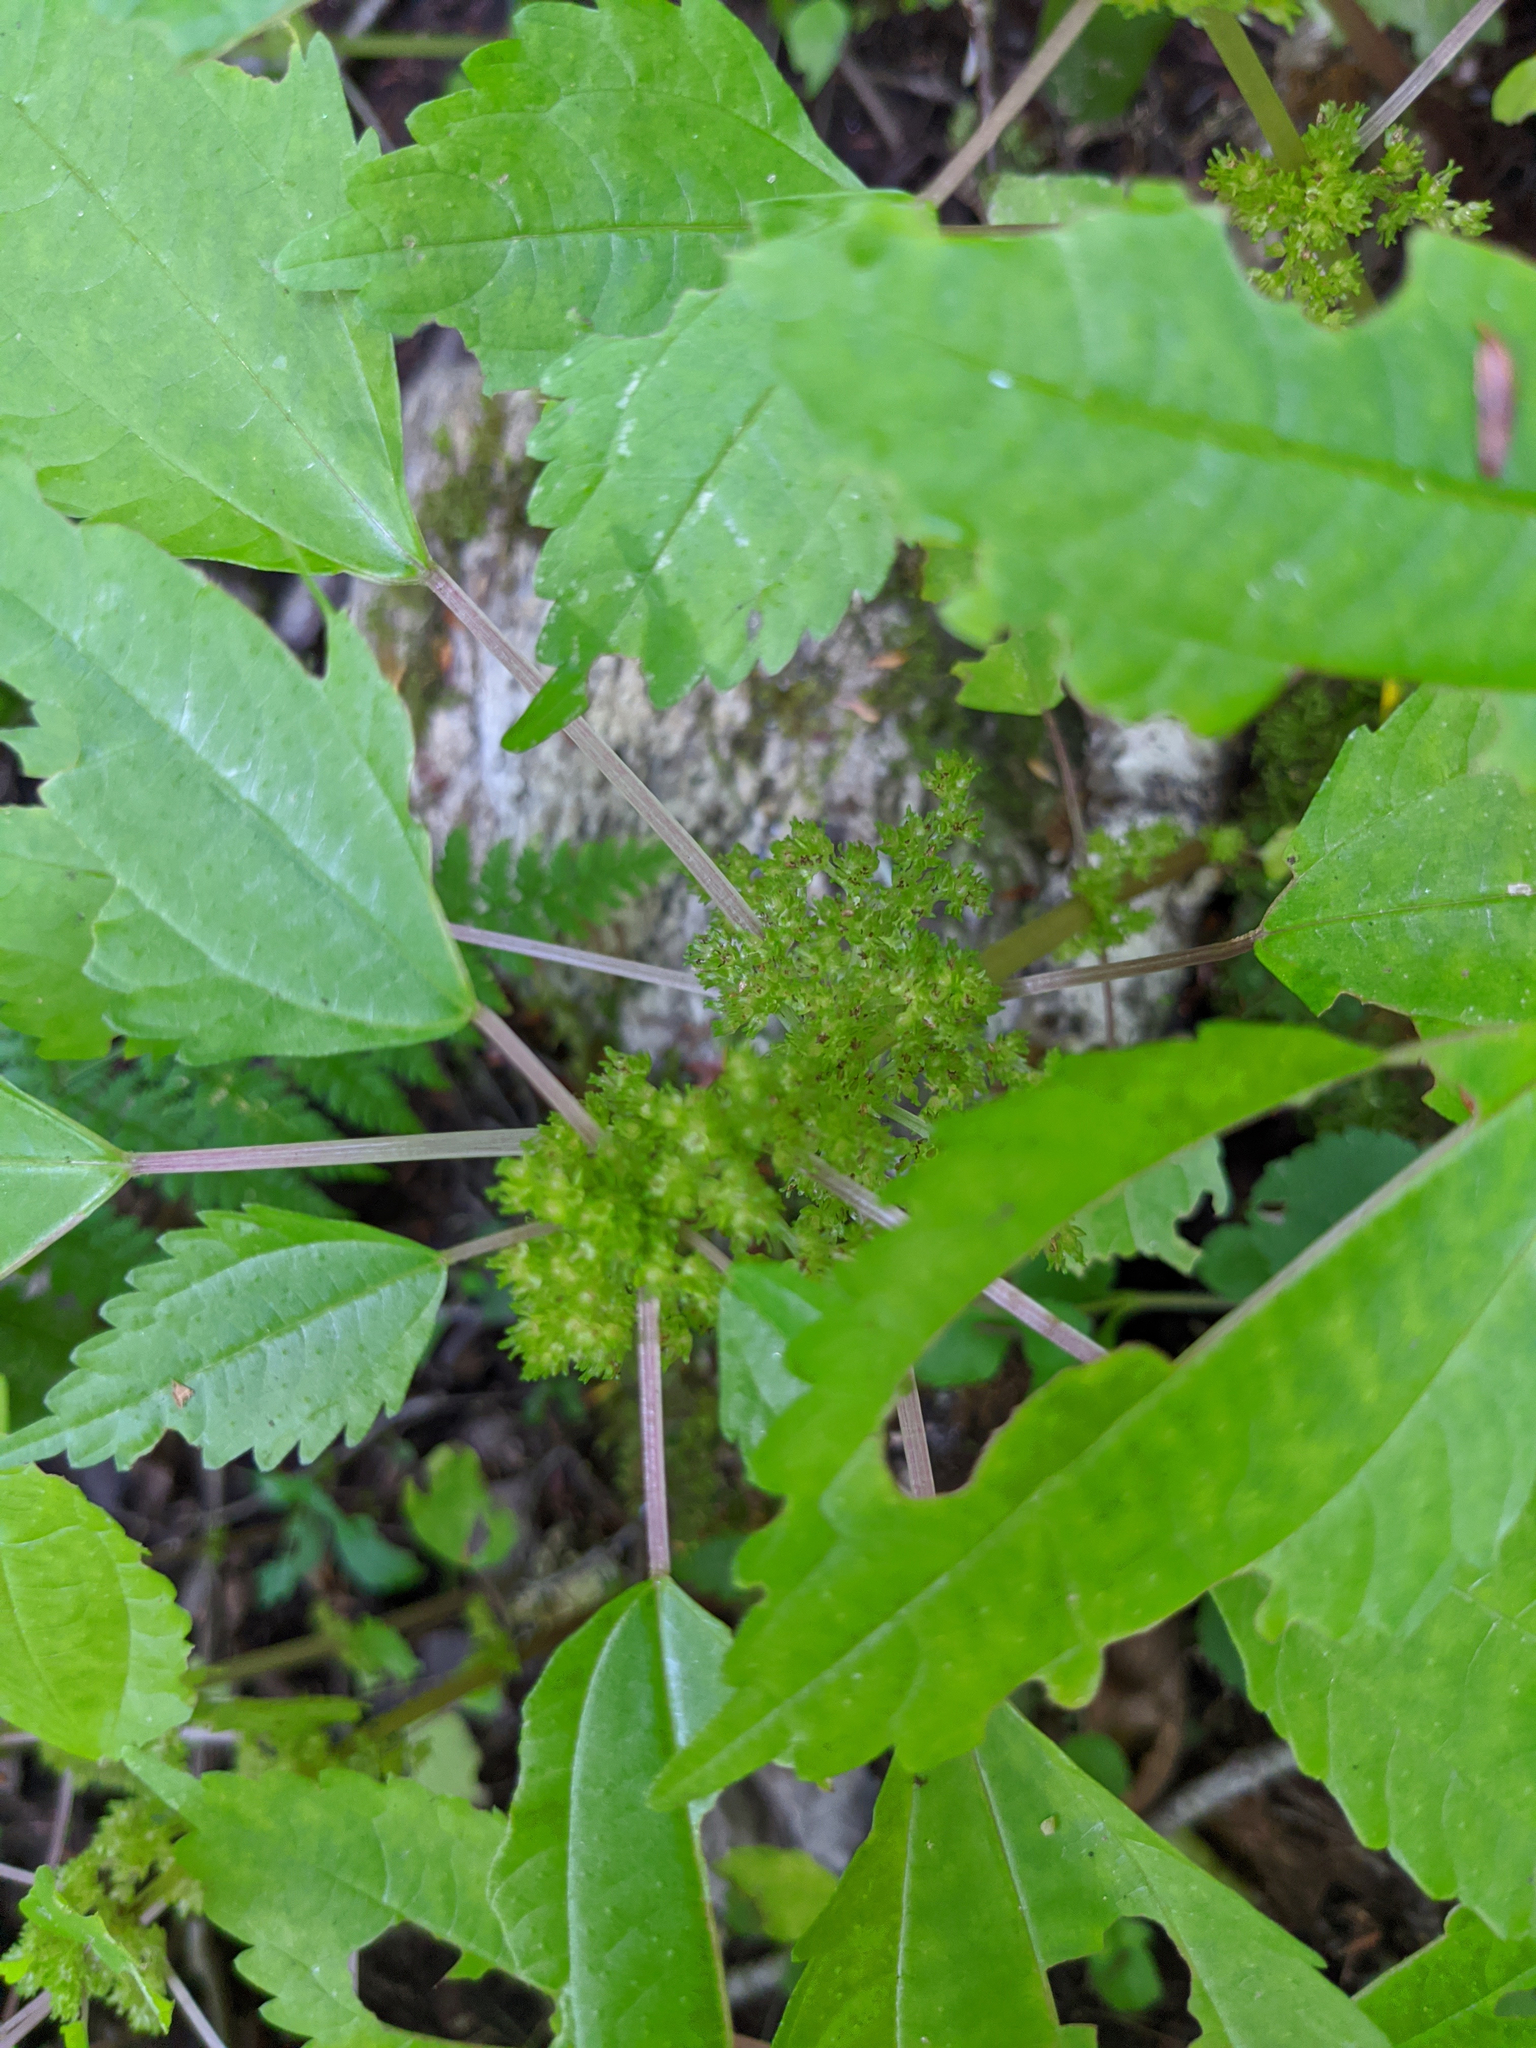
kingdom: Plantae
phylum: Tracheophyta
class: Magnoliopsida
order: Rosales
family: Urticaceae
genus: Pilea
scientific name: Pilea pumila
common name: Clearweed
